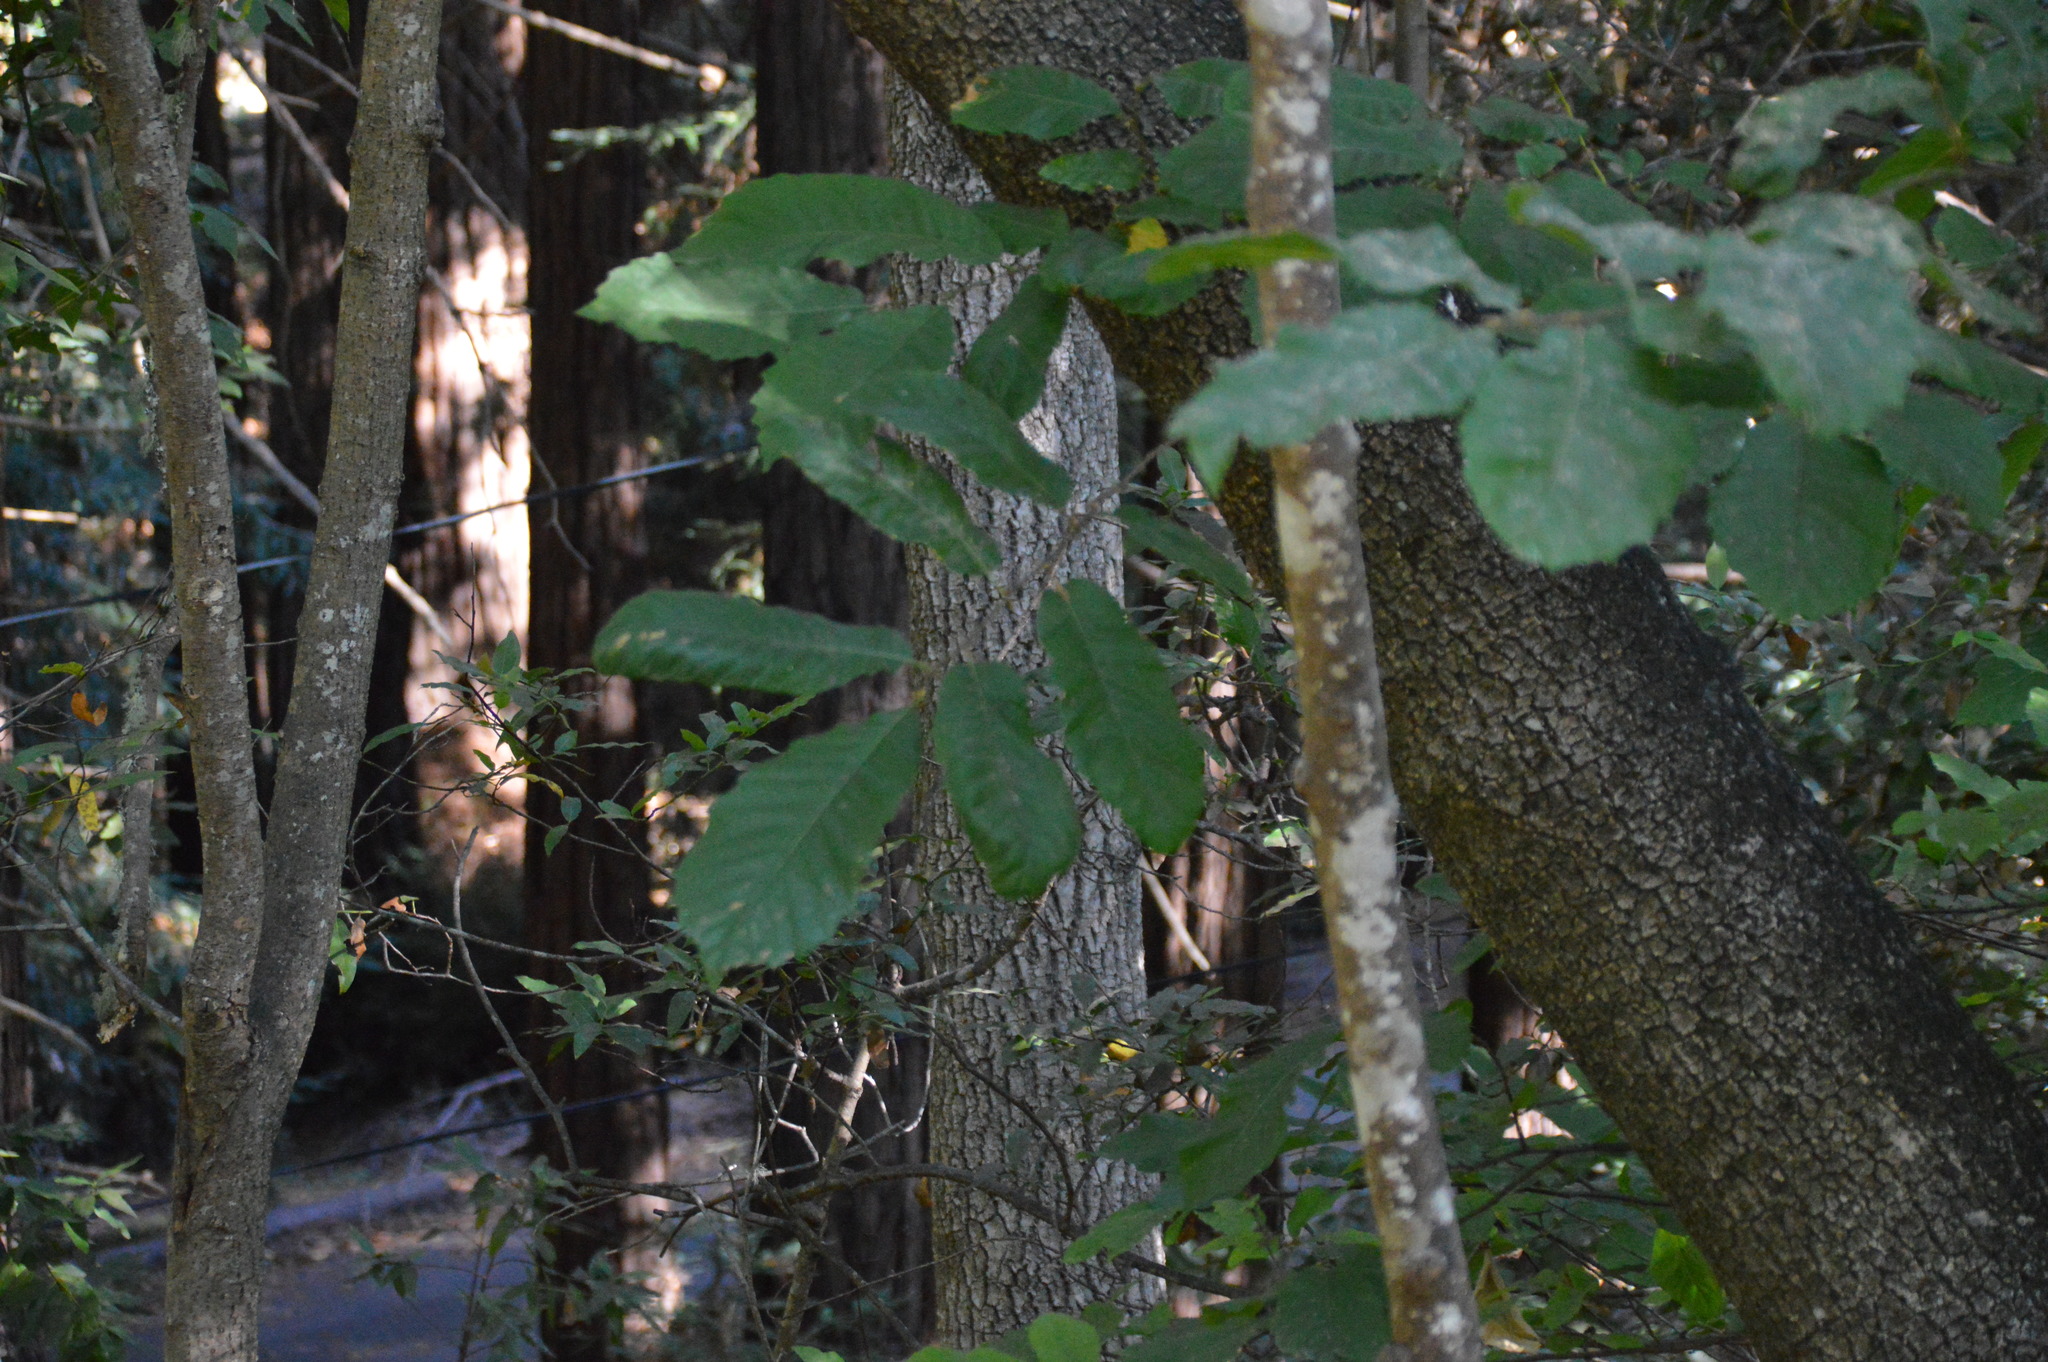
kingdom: Plantae
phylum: Tracheophyta
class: Magnoliopsida
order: Fagales
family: Fagaceae
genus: Notholithocarpus
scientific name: Notholithocarpus densiflorus
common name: Tan bark oak
